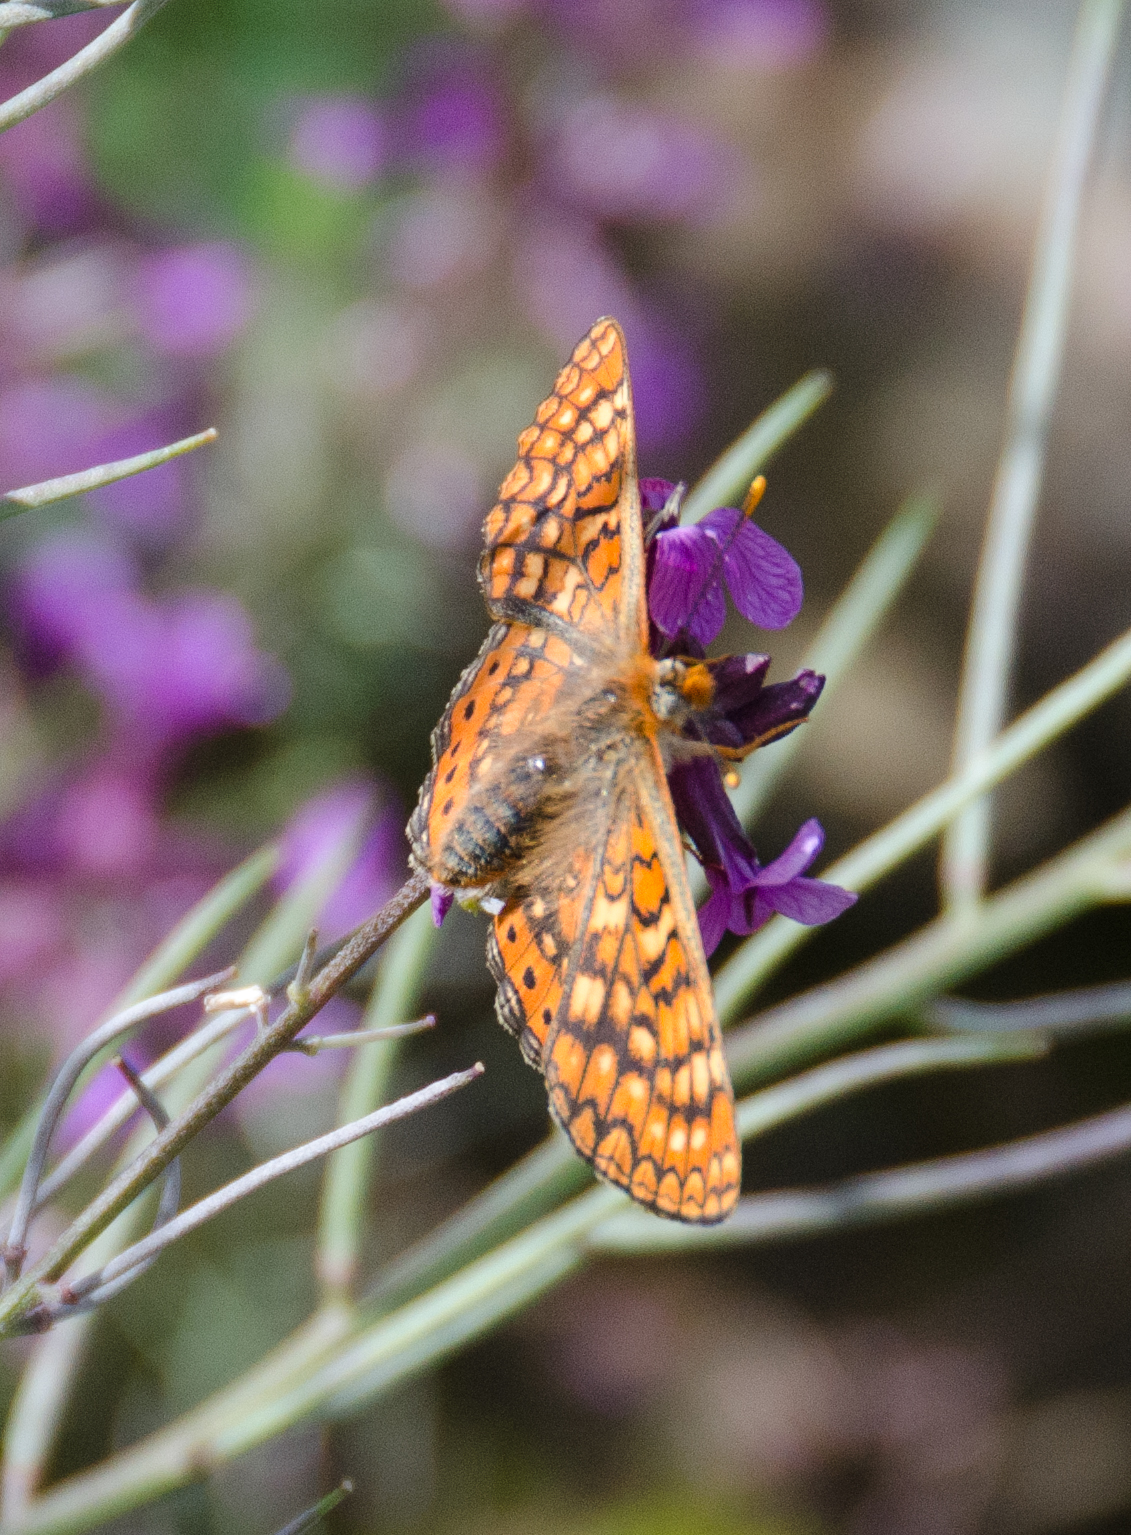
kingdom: Animalia
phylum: Arthropoda
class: Insecta
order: Lepidoptera
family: Nymphalidae
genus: Euphydryas
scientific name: Euphydryas aurinia
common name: Marsh fritillary
